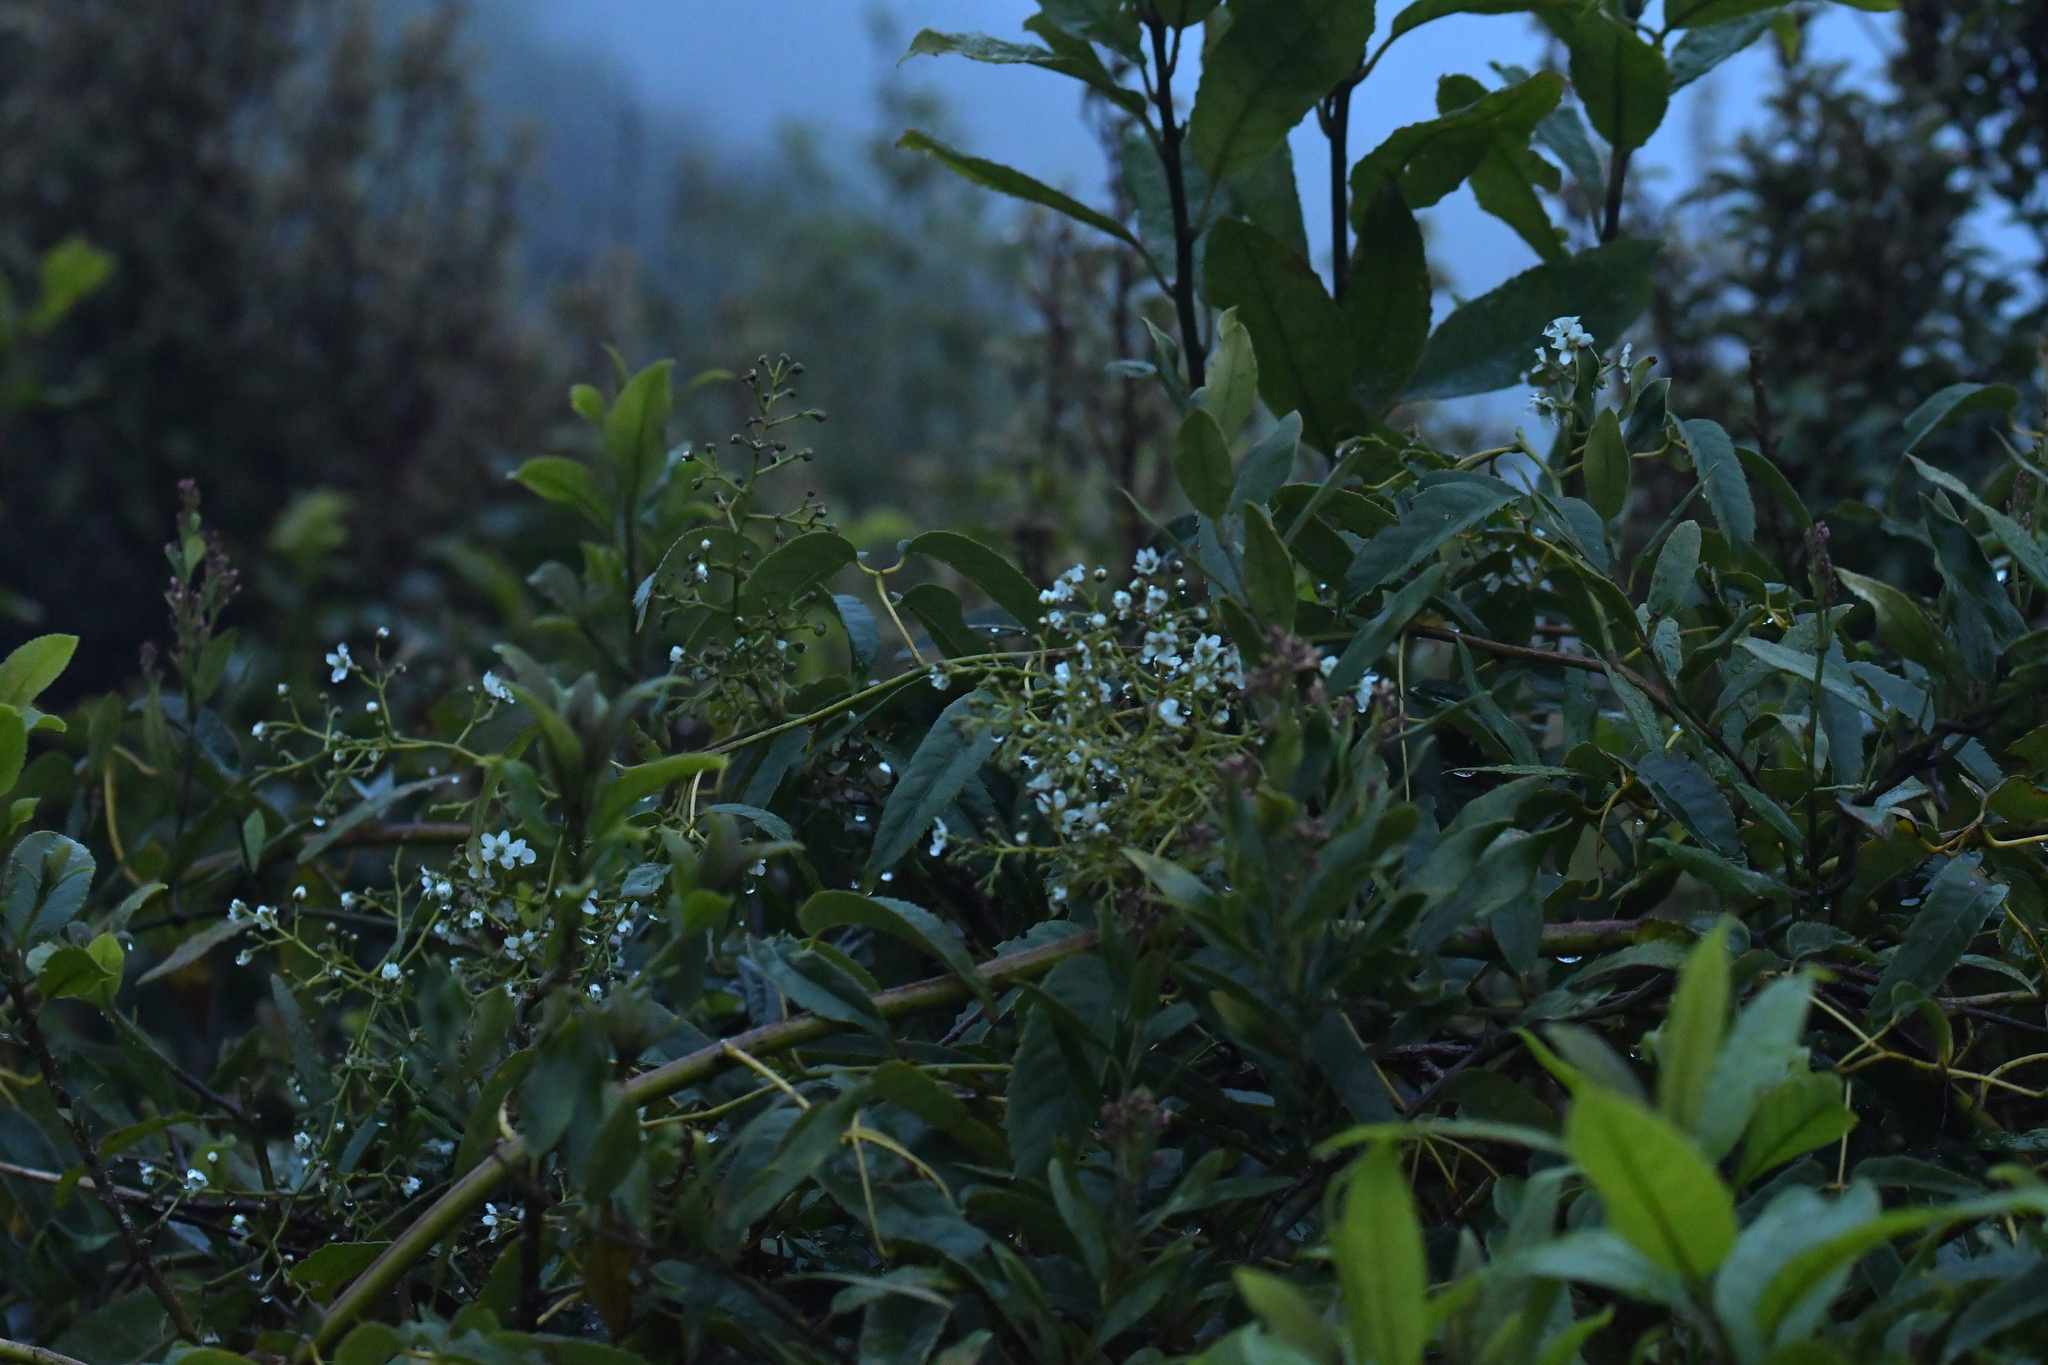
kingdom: Plantae
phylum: Tracheophyta
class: Magnoliopsida
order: Rosales
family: Rosaceae
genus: Rubus
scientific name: Rubus cissoides
